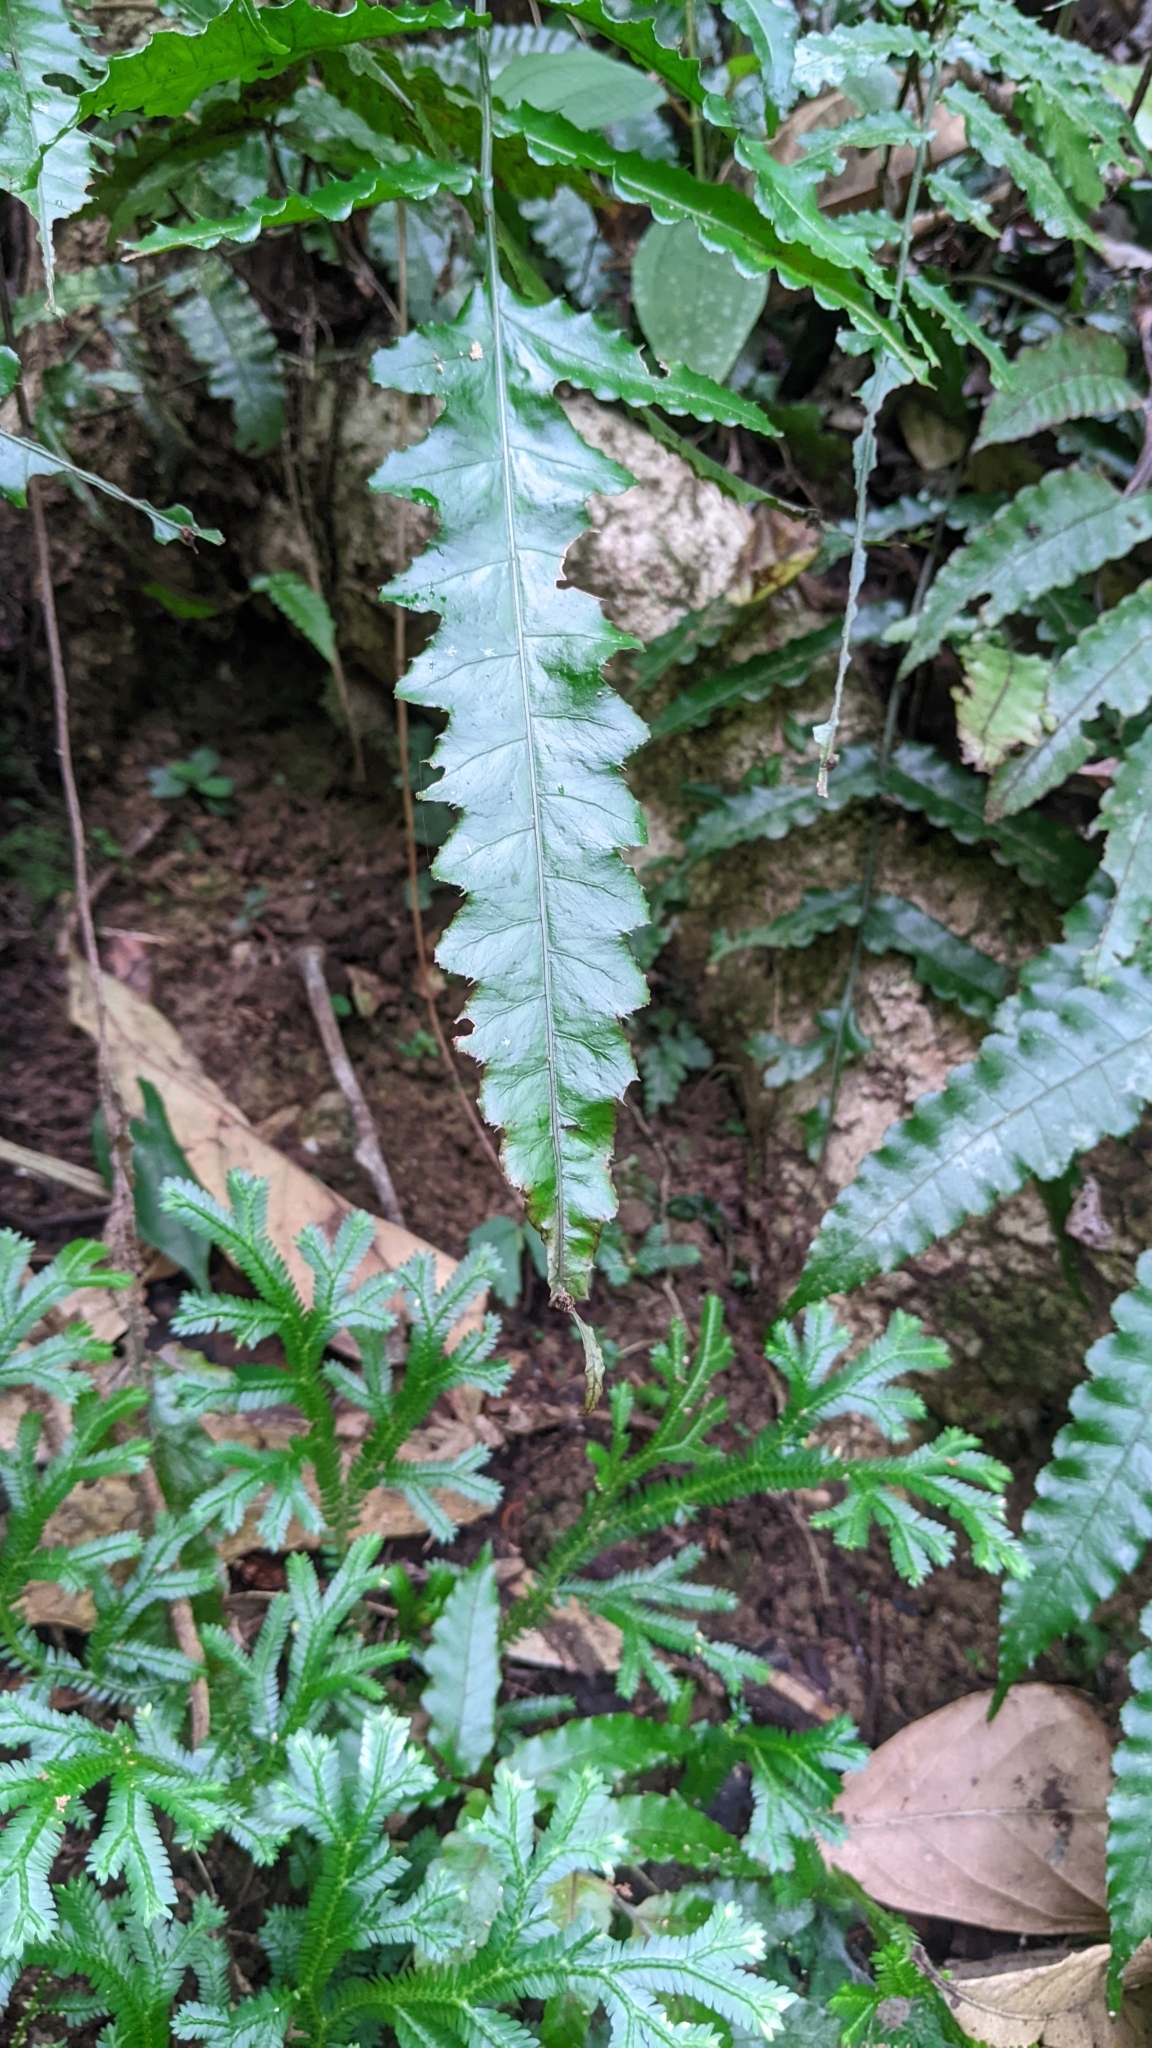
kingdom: Plantae
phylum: Tracheophyta
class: Polypodiopsida
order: Polypodiales
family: Dryopteridaceae
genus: Bolbitis
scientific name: Bolbitis subcordata
